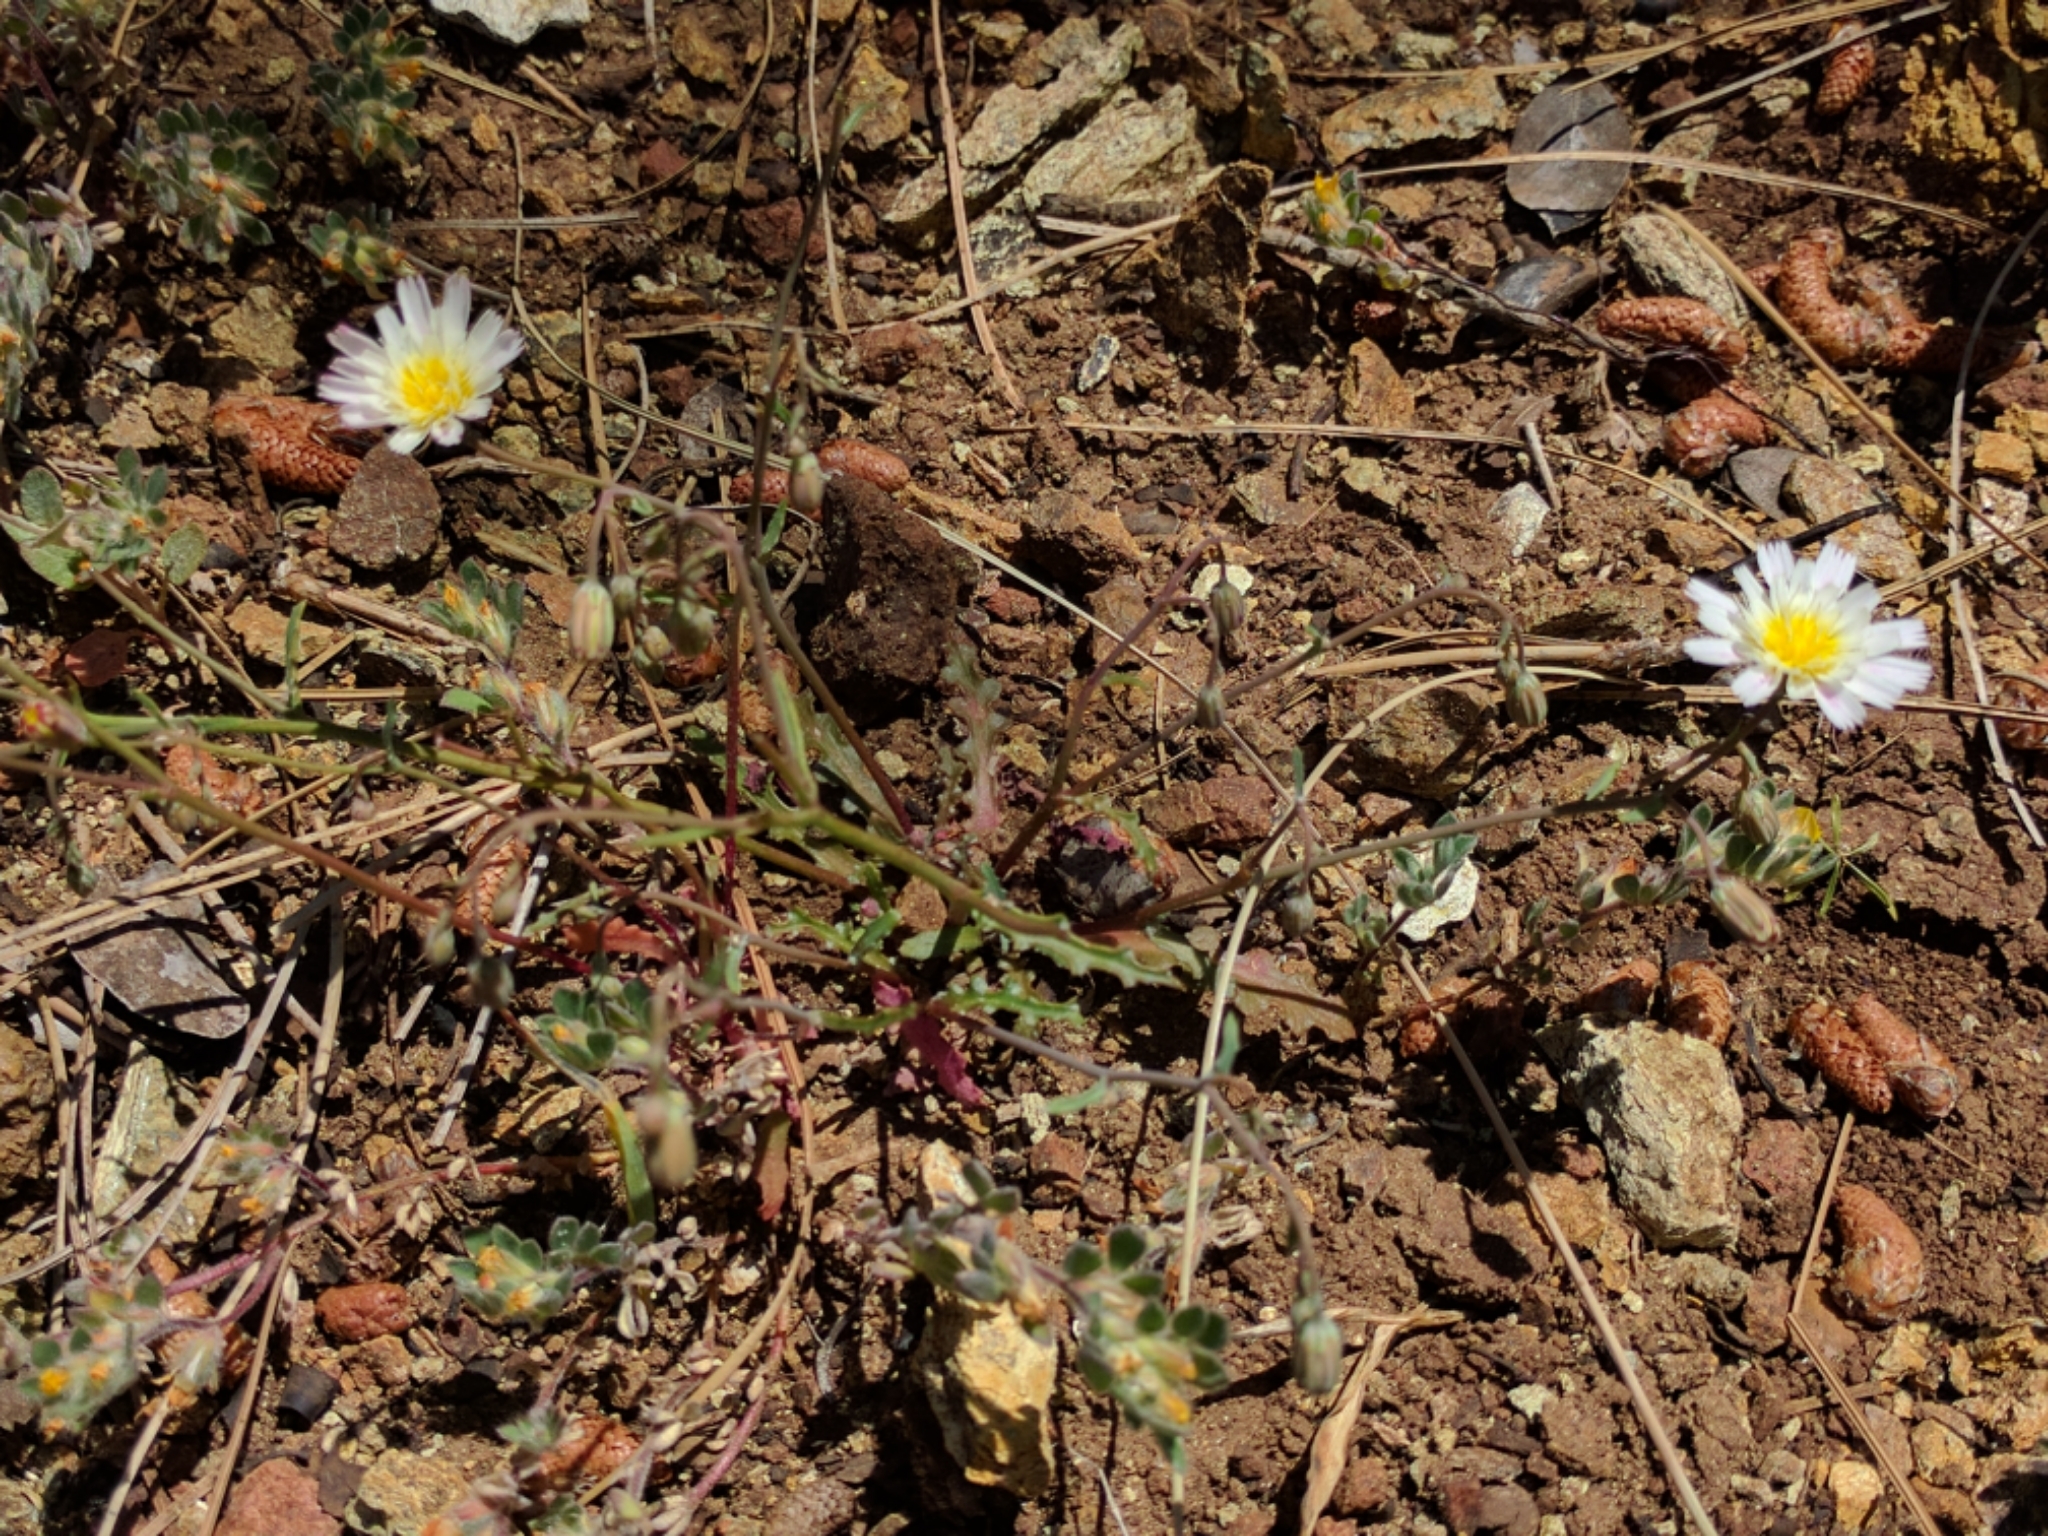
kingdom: Plantae
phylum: Tracheophyta
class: Magnoliopsida
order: Asterales
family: Asteraceae
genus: Malacothrix
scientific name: Malacothrix floccifera
